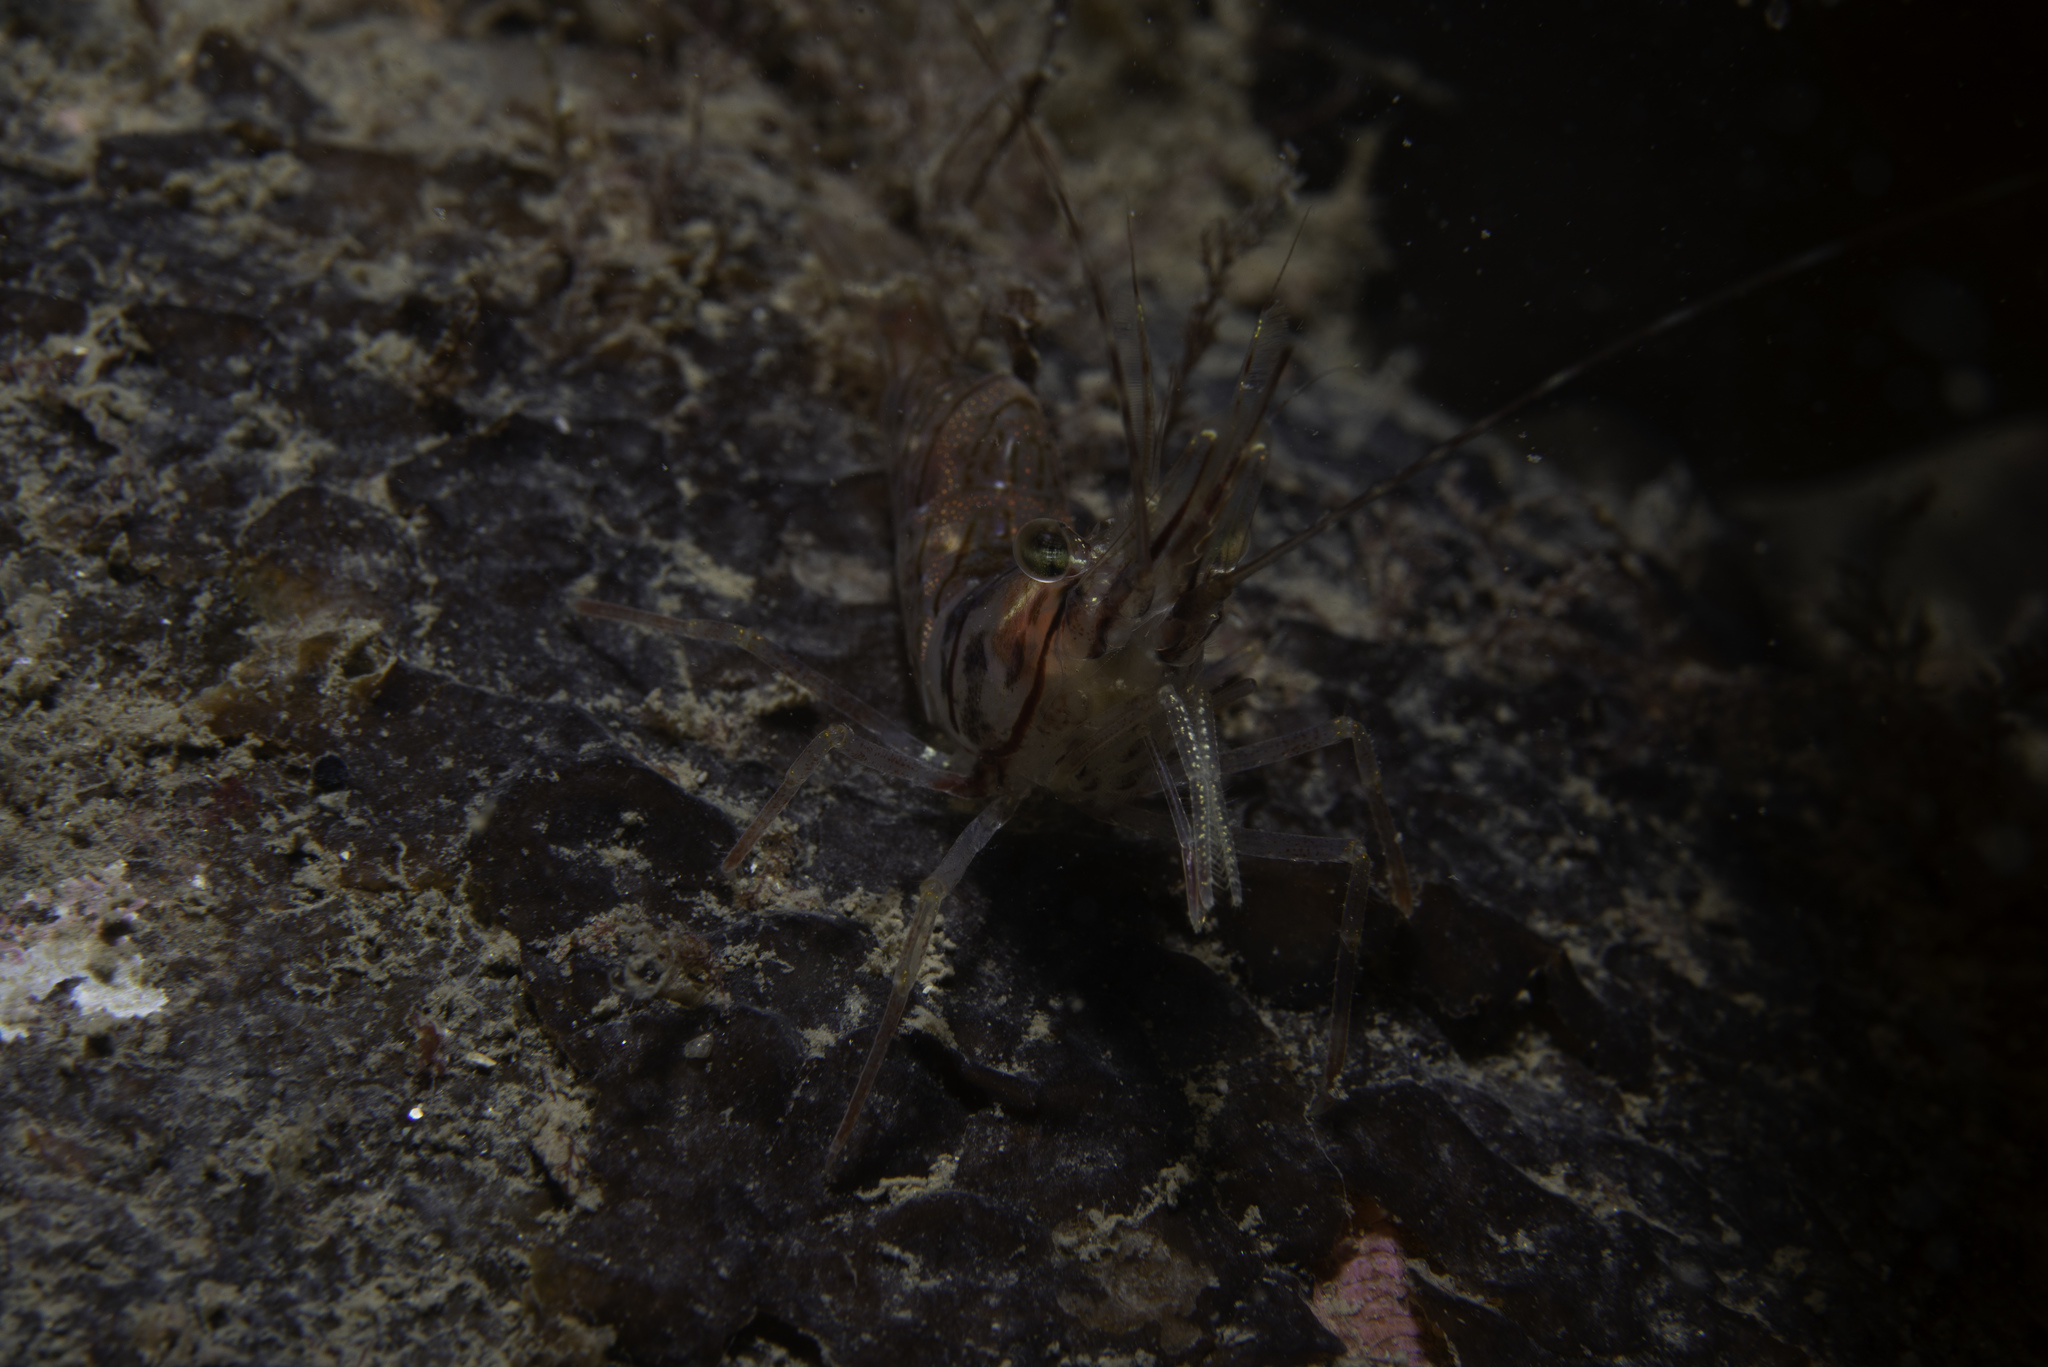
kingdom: Animalia
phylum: Arthropoda
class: Malacostraca
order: Decapoda
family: Pandalidae
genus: Pandalus
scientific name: Pandalus montagui
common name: Pink shrimp
